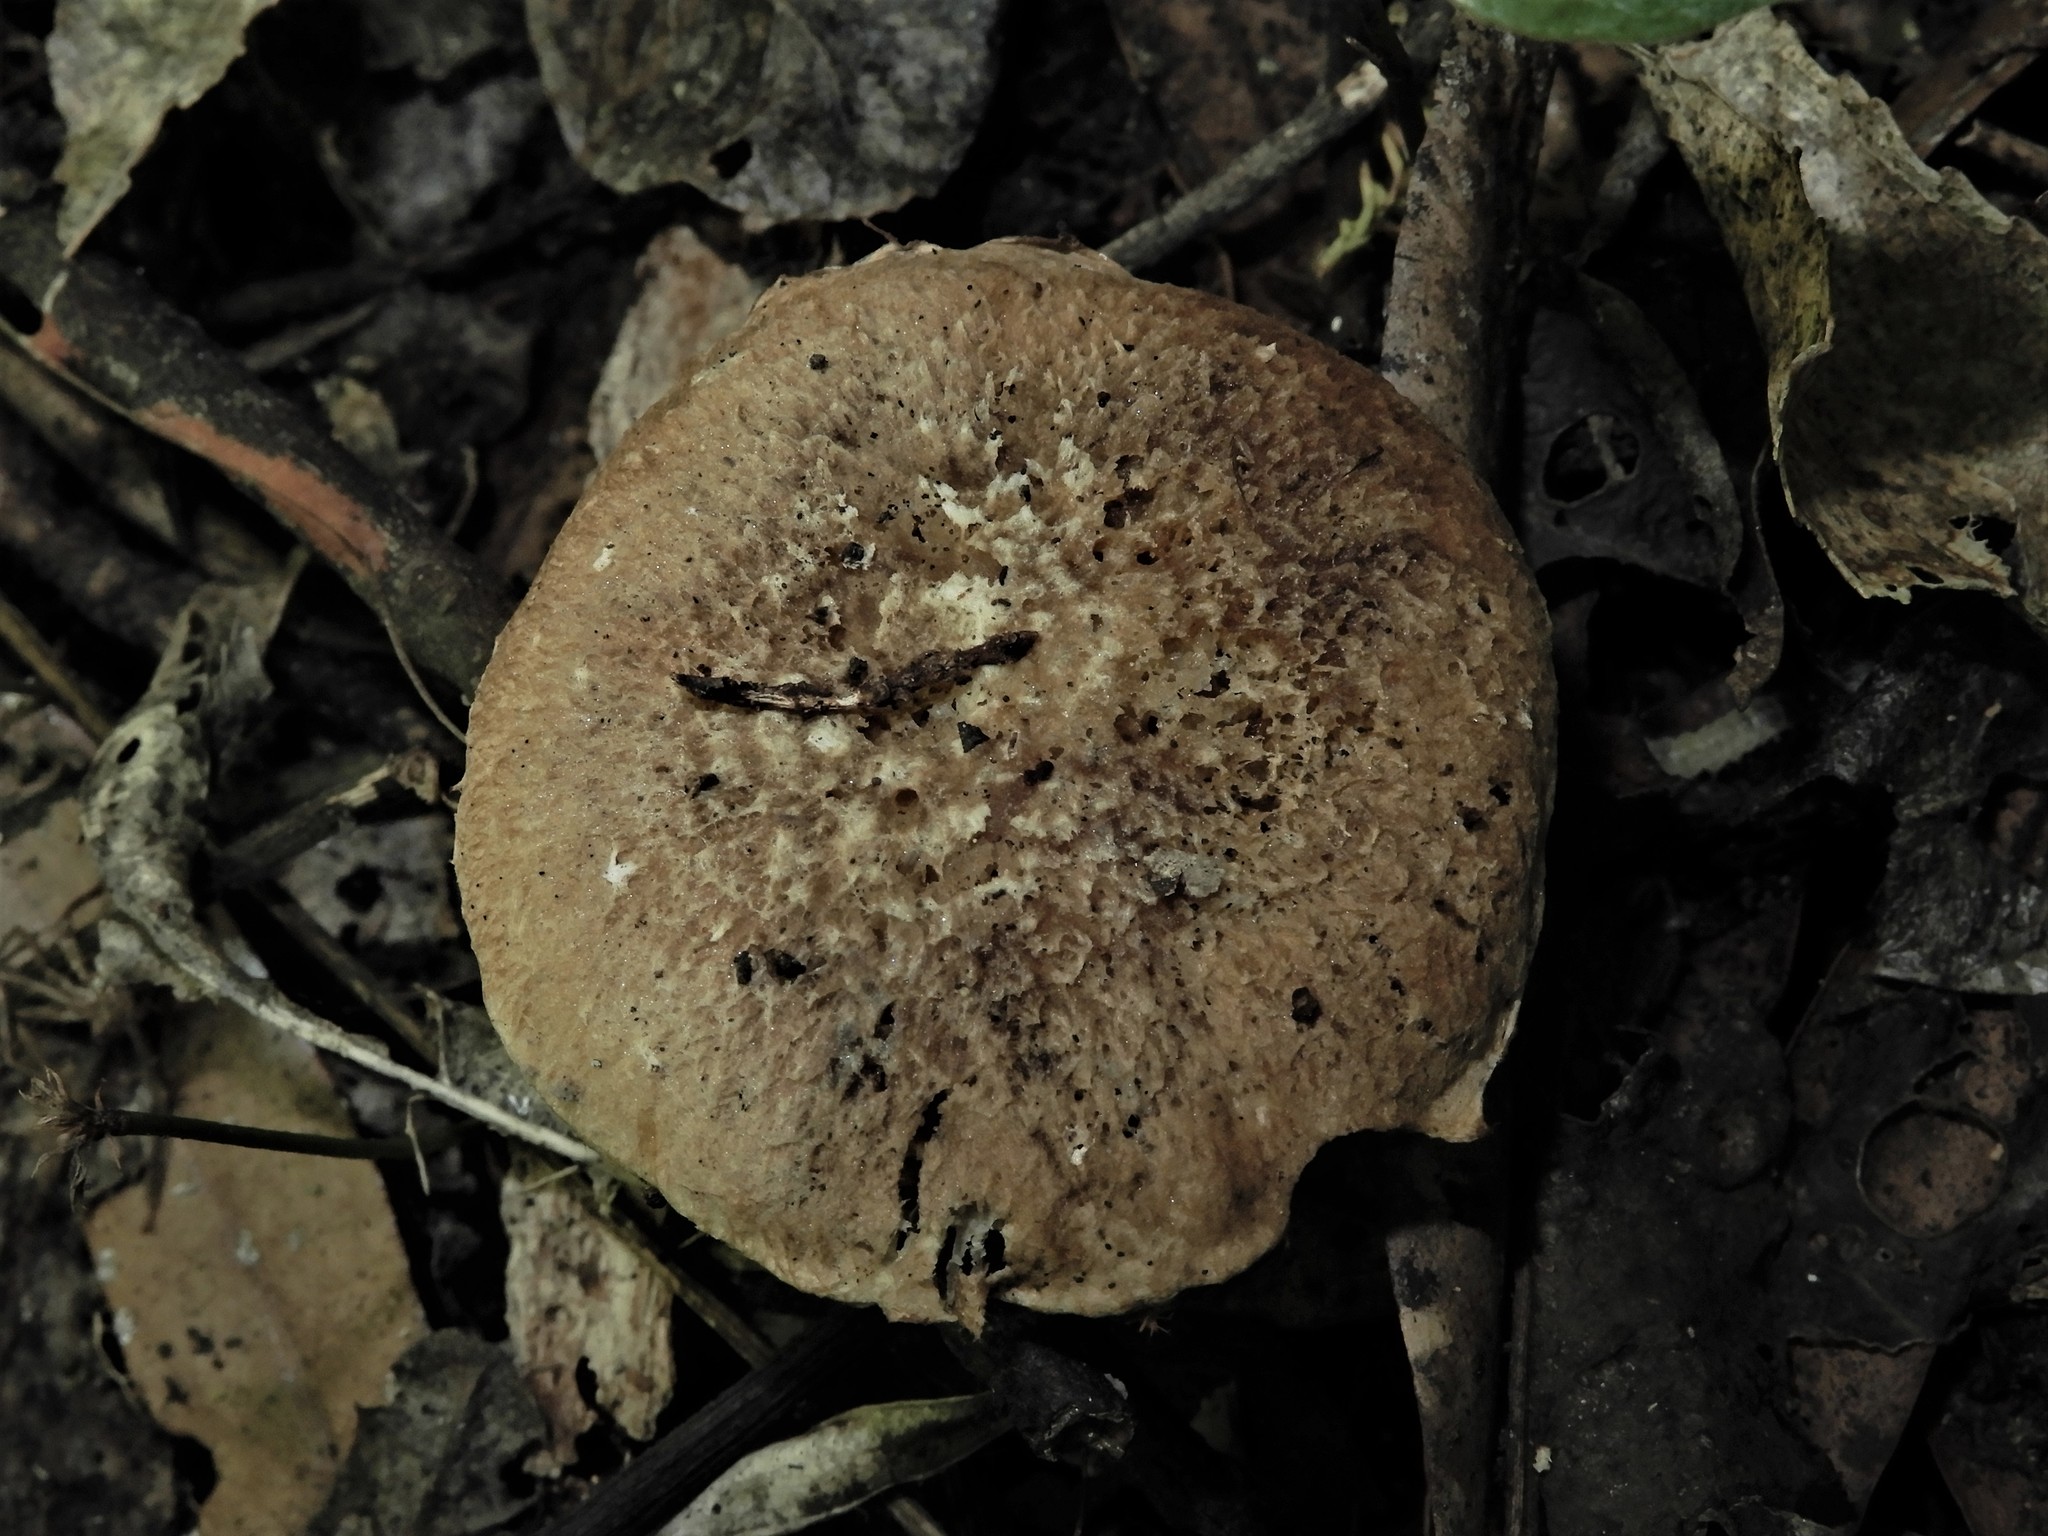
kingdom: Fungi
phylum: Basidiomycota
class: Agaricomycetes
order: Agaricales
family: Psathyrellaceae
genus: Psathyrella
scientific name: Psathyrella asperospora
